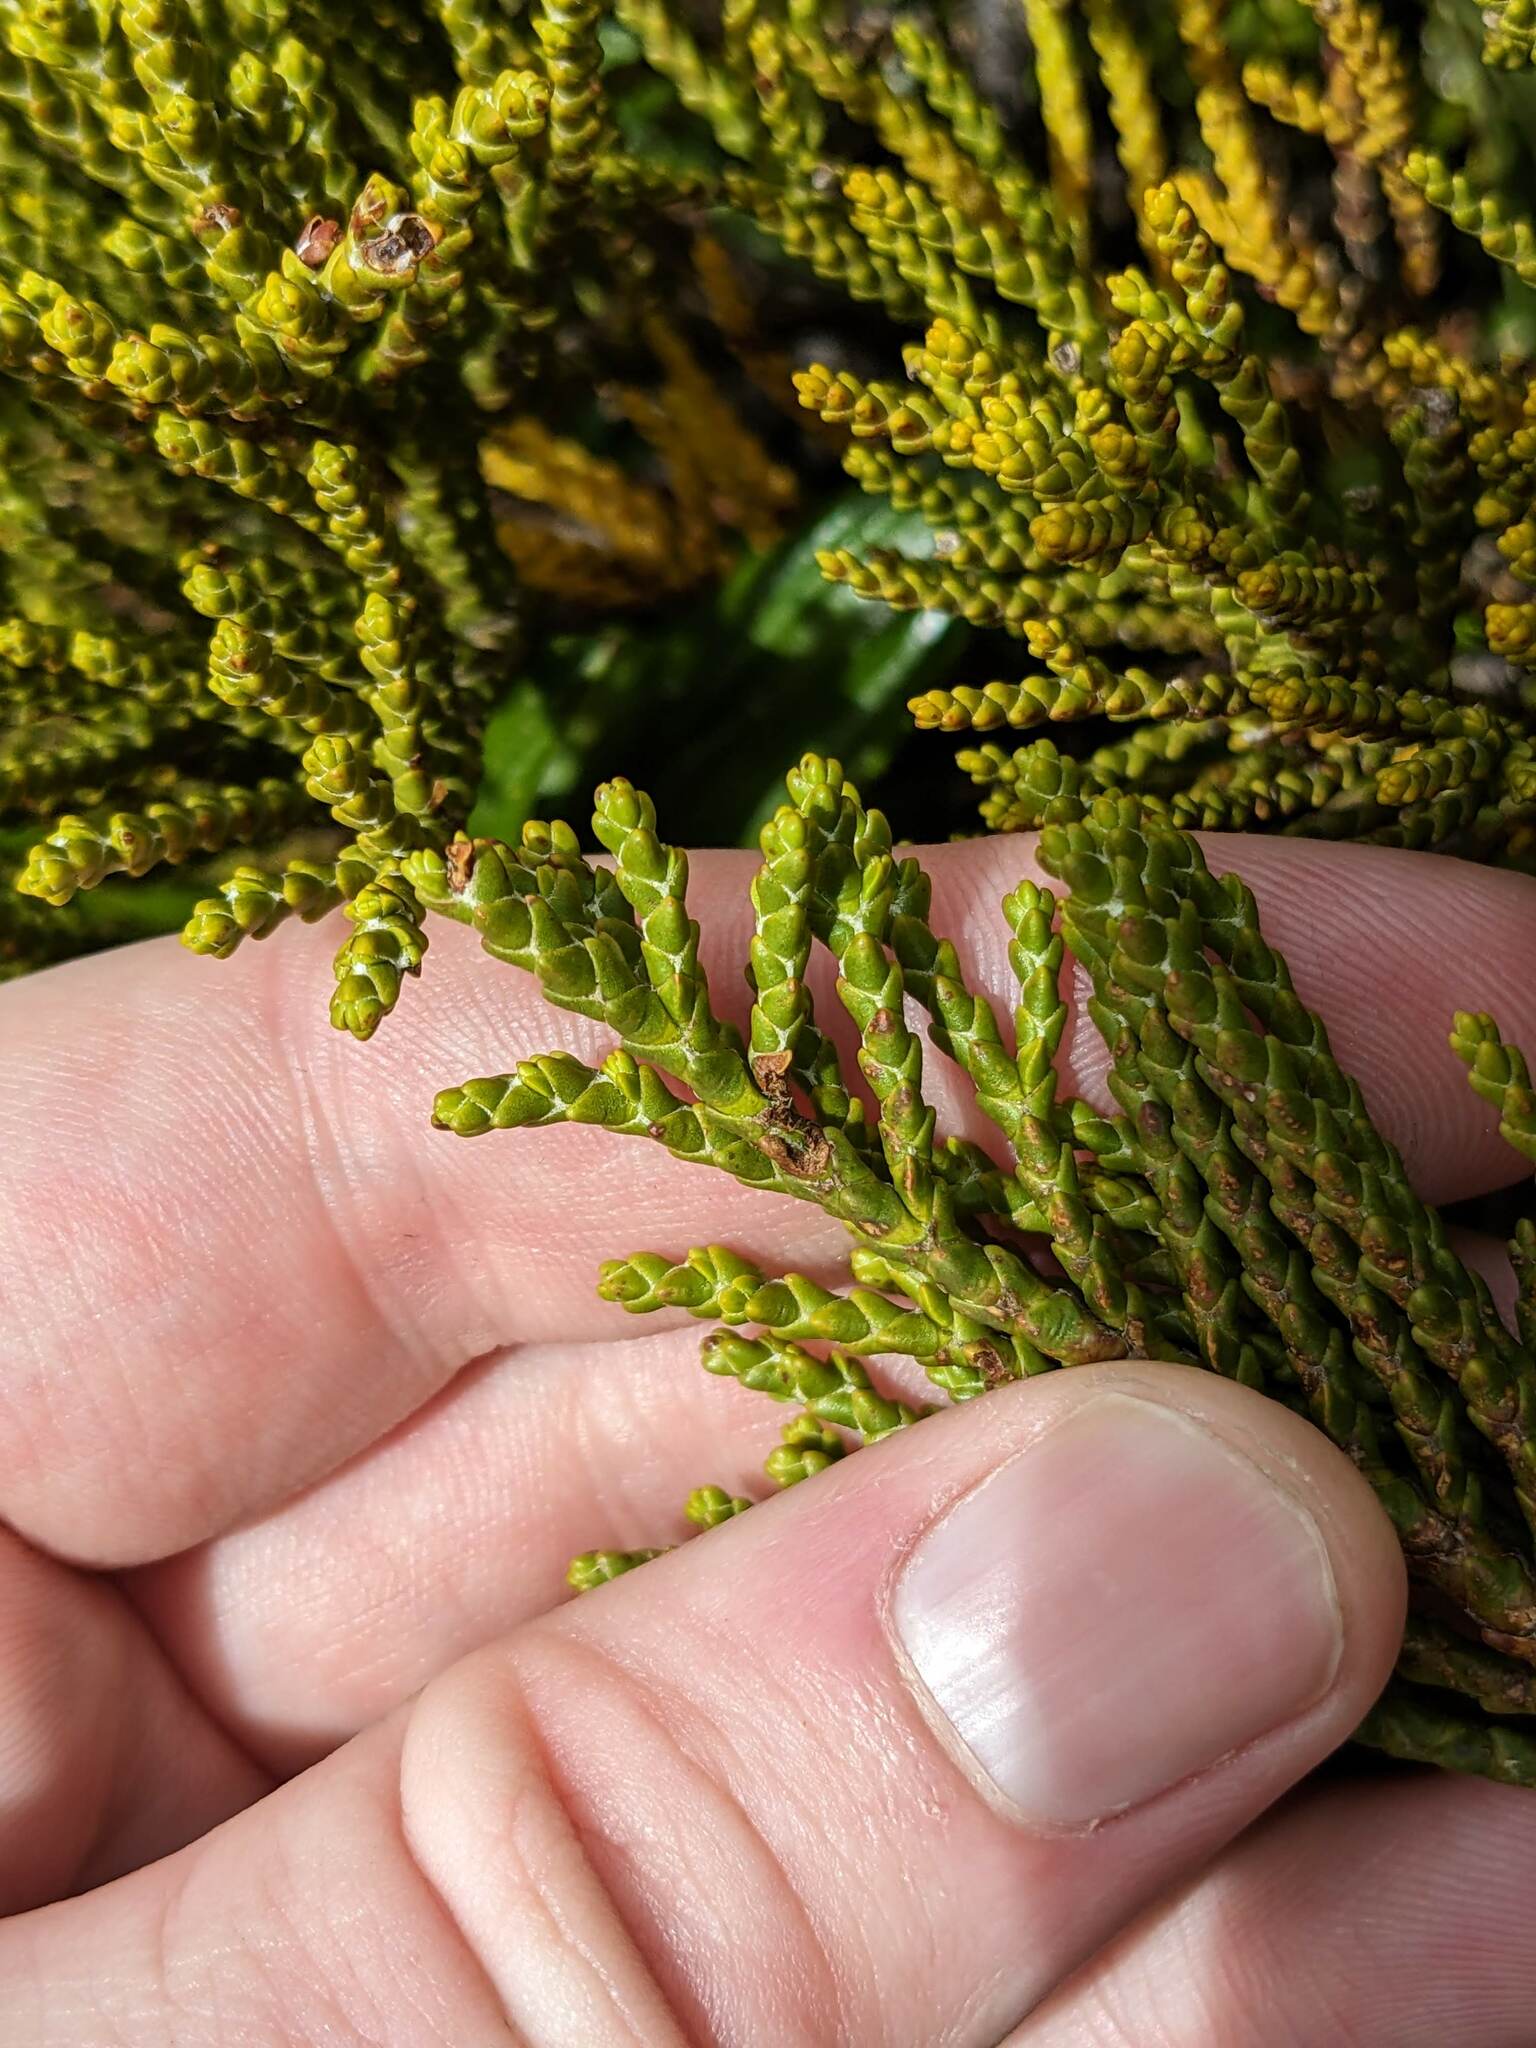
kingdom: Plantae
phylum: Tracheophyta
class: Magnoliopsida
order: Lamiales
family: Plantaginaceae
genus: Veronica
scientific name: Veronica tetragona
